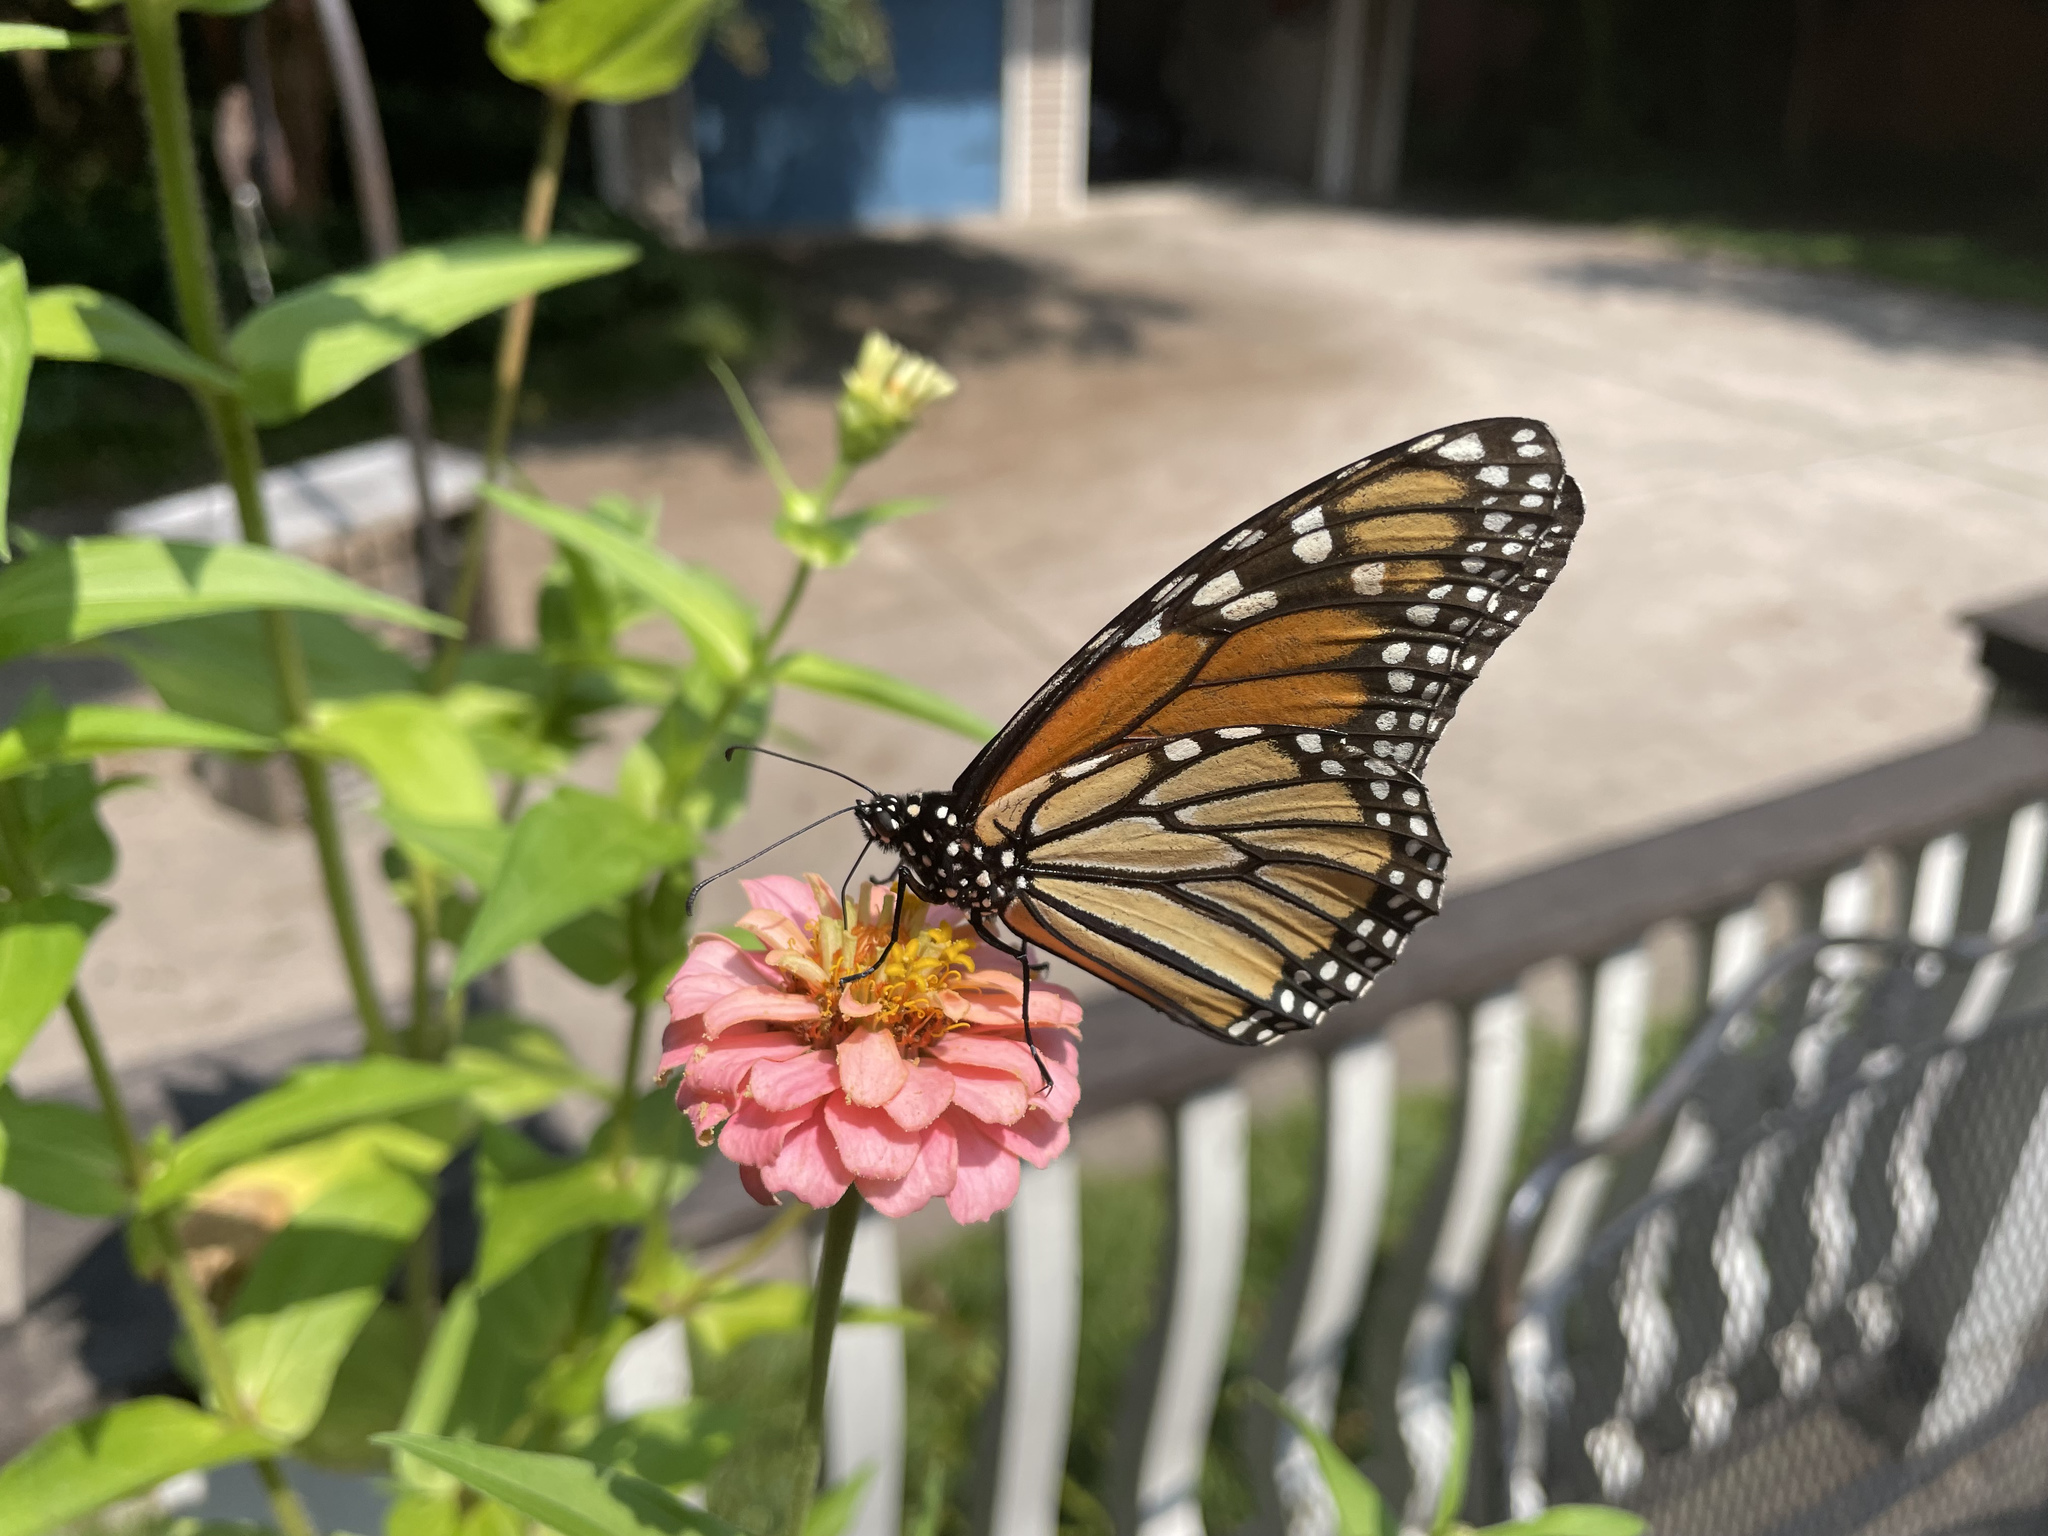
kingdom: Animalia
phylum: Arthropoda
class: Insecta
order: Lepidoptera
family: Nymphalidae
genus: Danaus
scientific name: Danaus plexippus
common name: Monarch
